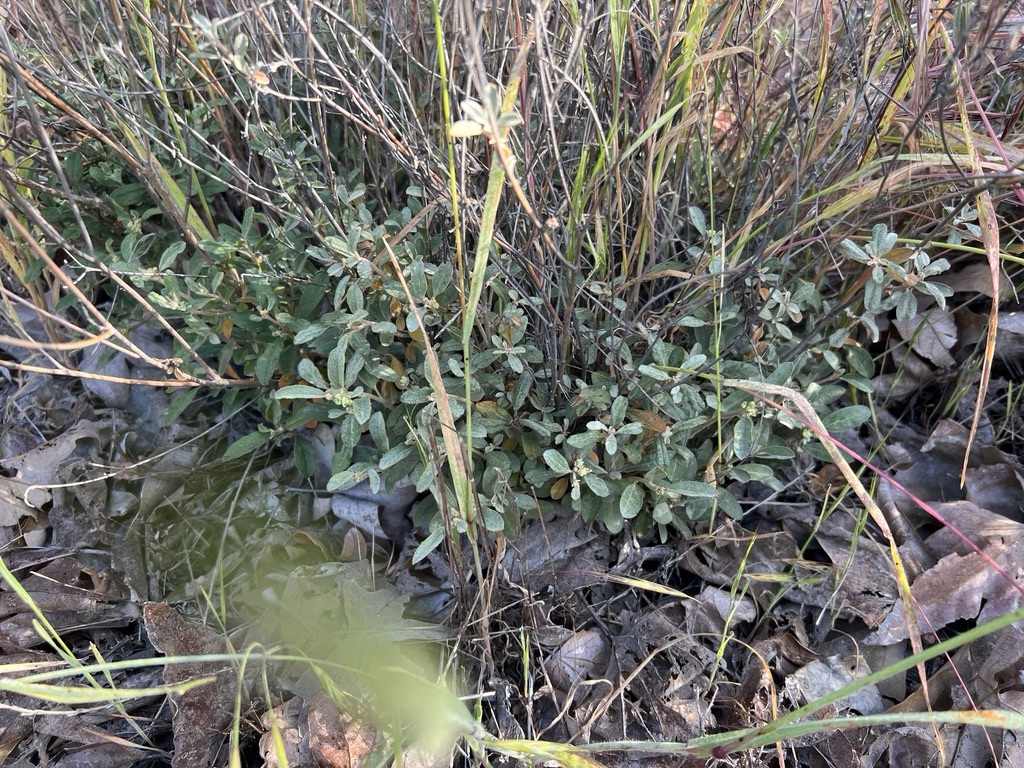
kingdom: Plantae
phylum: Tracheophyta
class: Magnoliopsida
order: Malpighiales
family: Euphorbiaceae
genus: Croton
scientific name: Croton californicus
